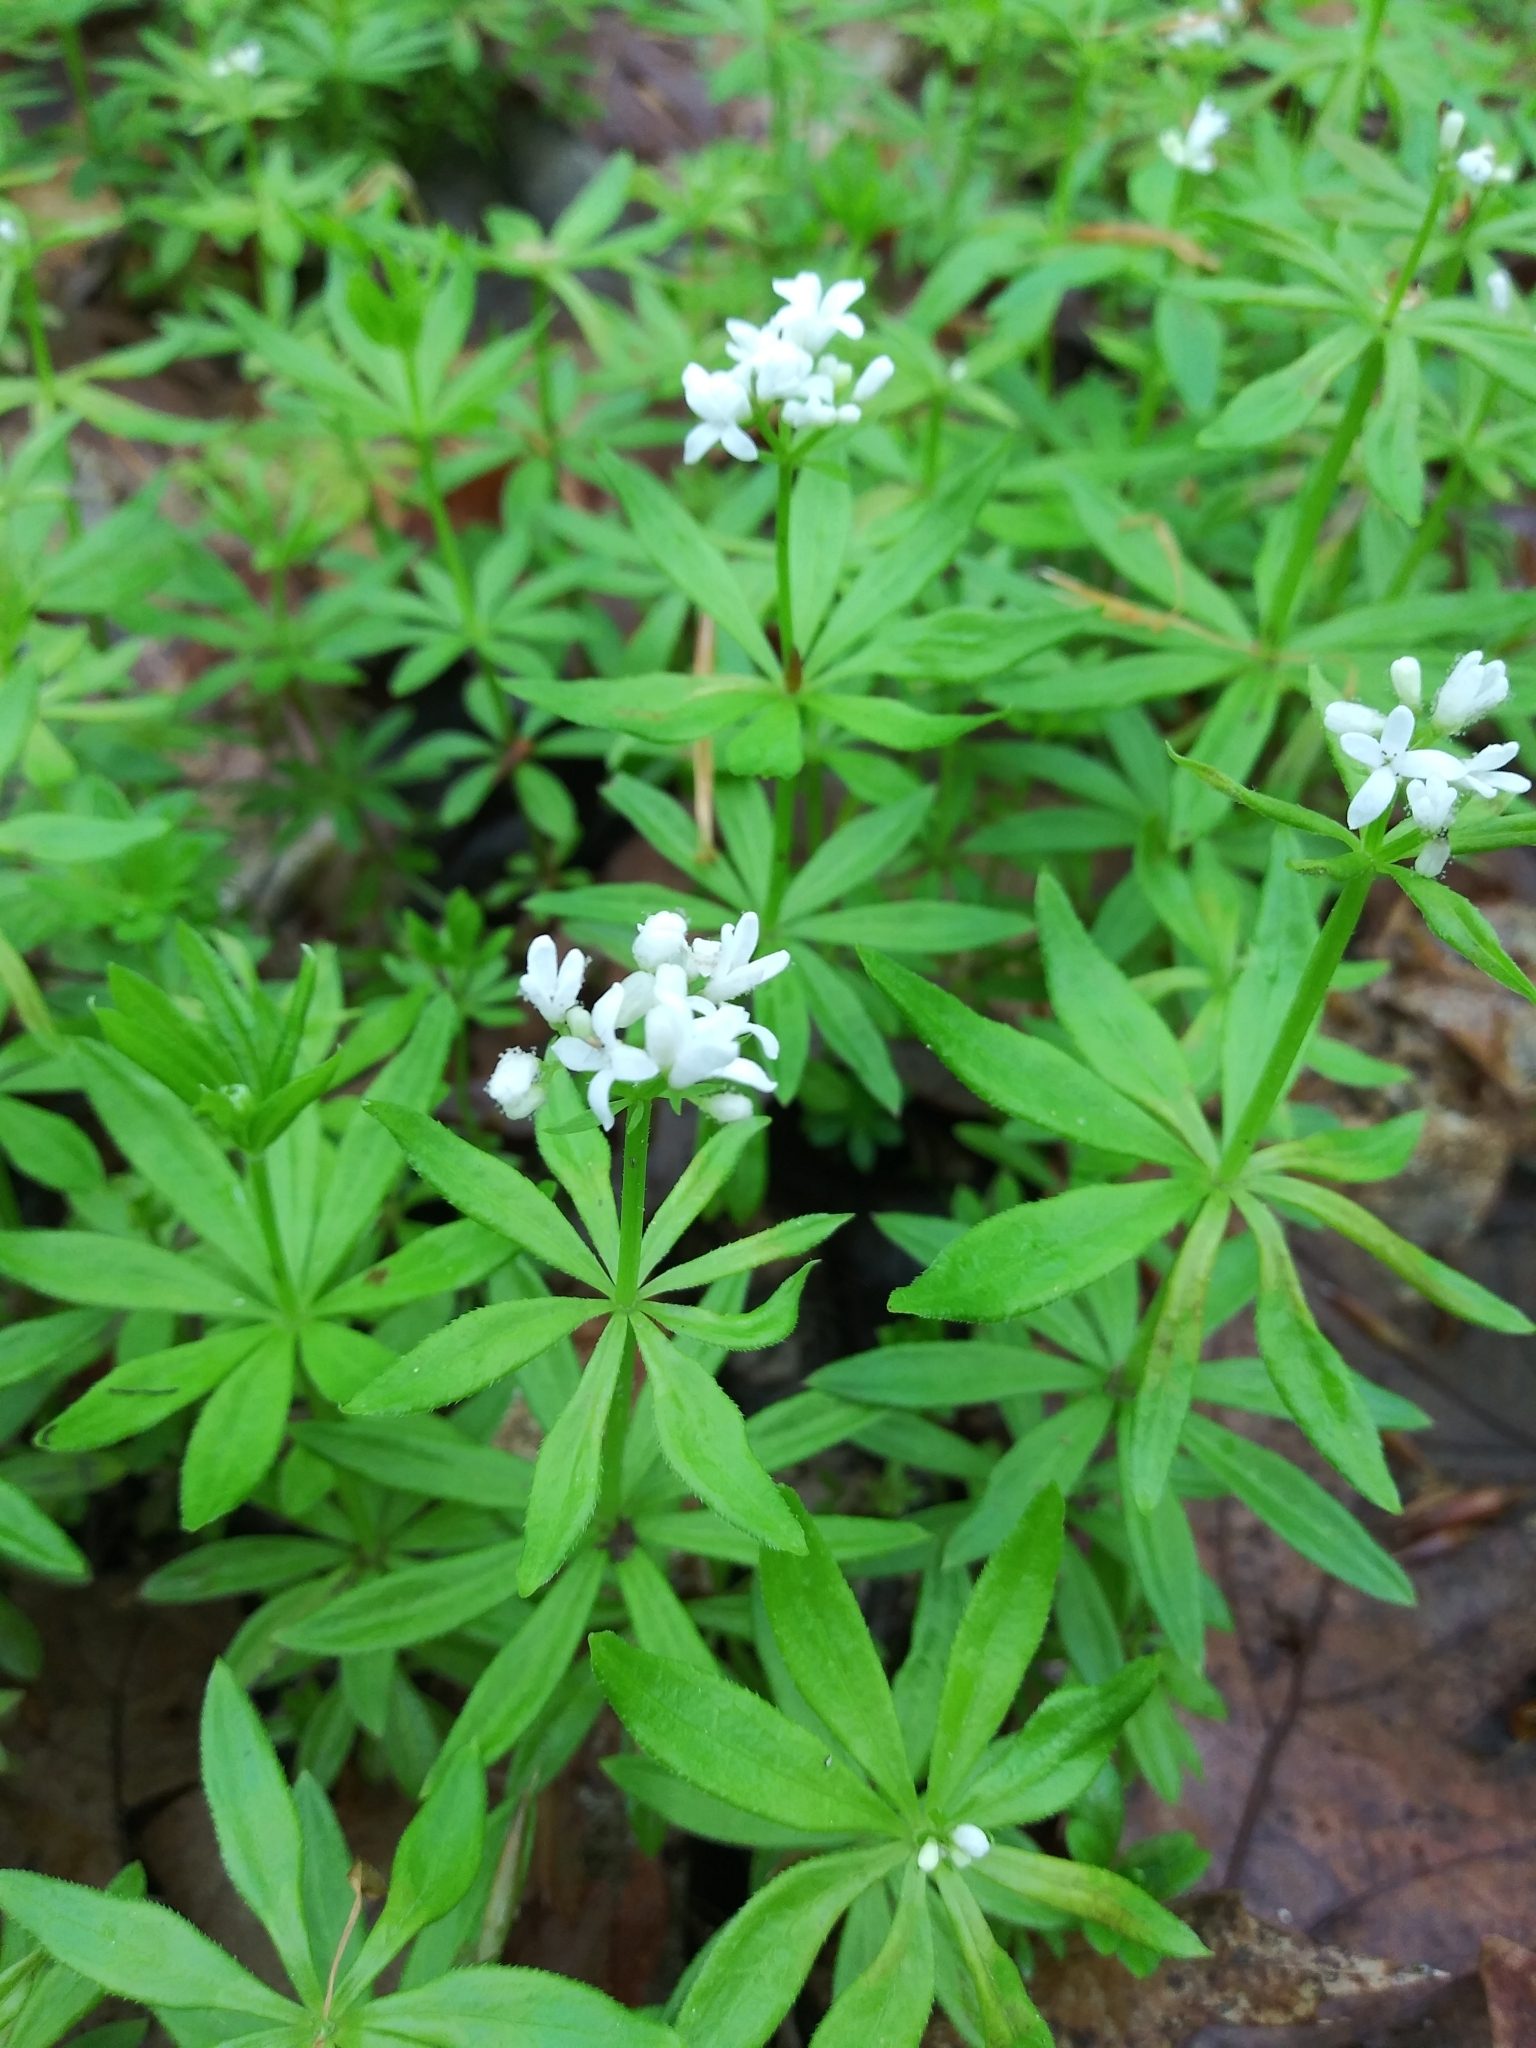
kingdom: Plantae
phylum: Tracheophyta
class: Magnoliopsida
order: Gentianales
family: Rubiaceae
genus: Galium
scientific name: Galium odoratum
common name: Sweet woodruff
